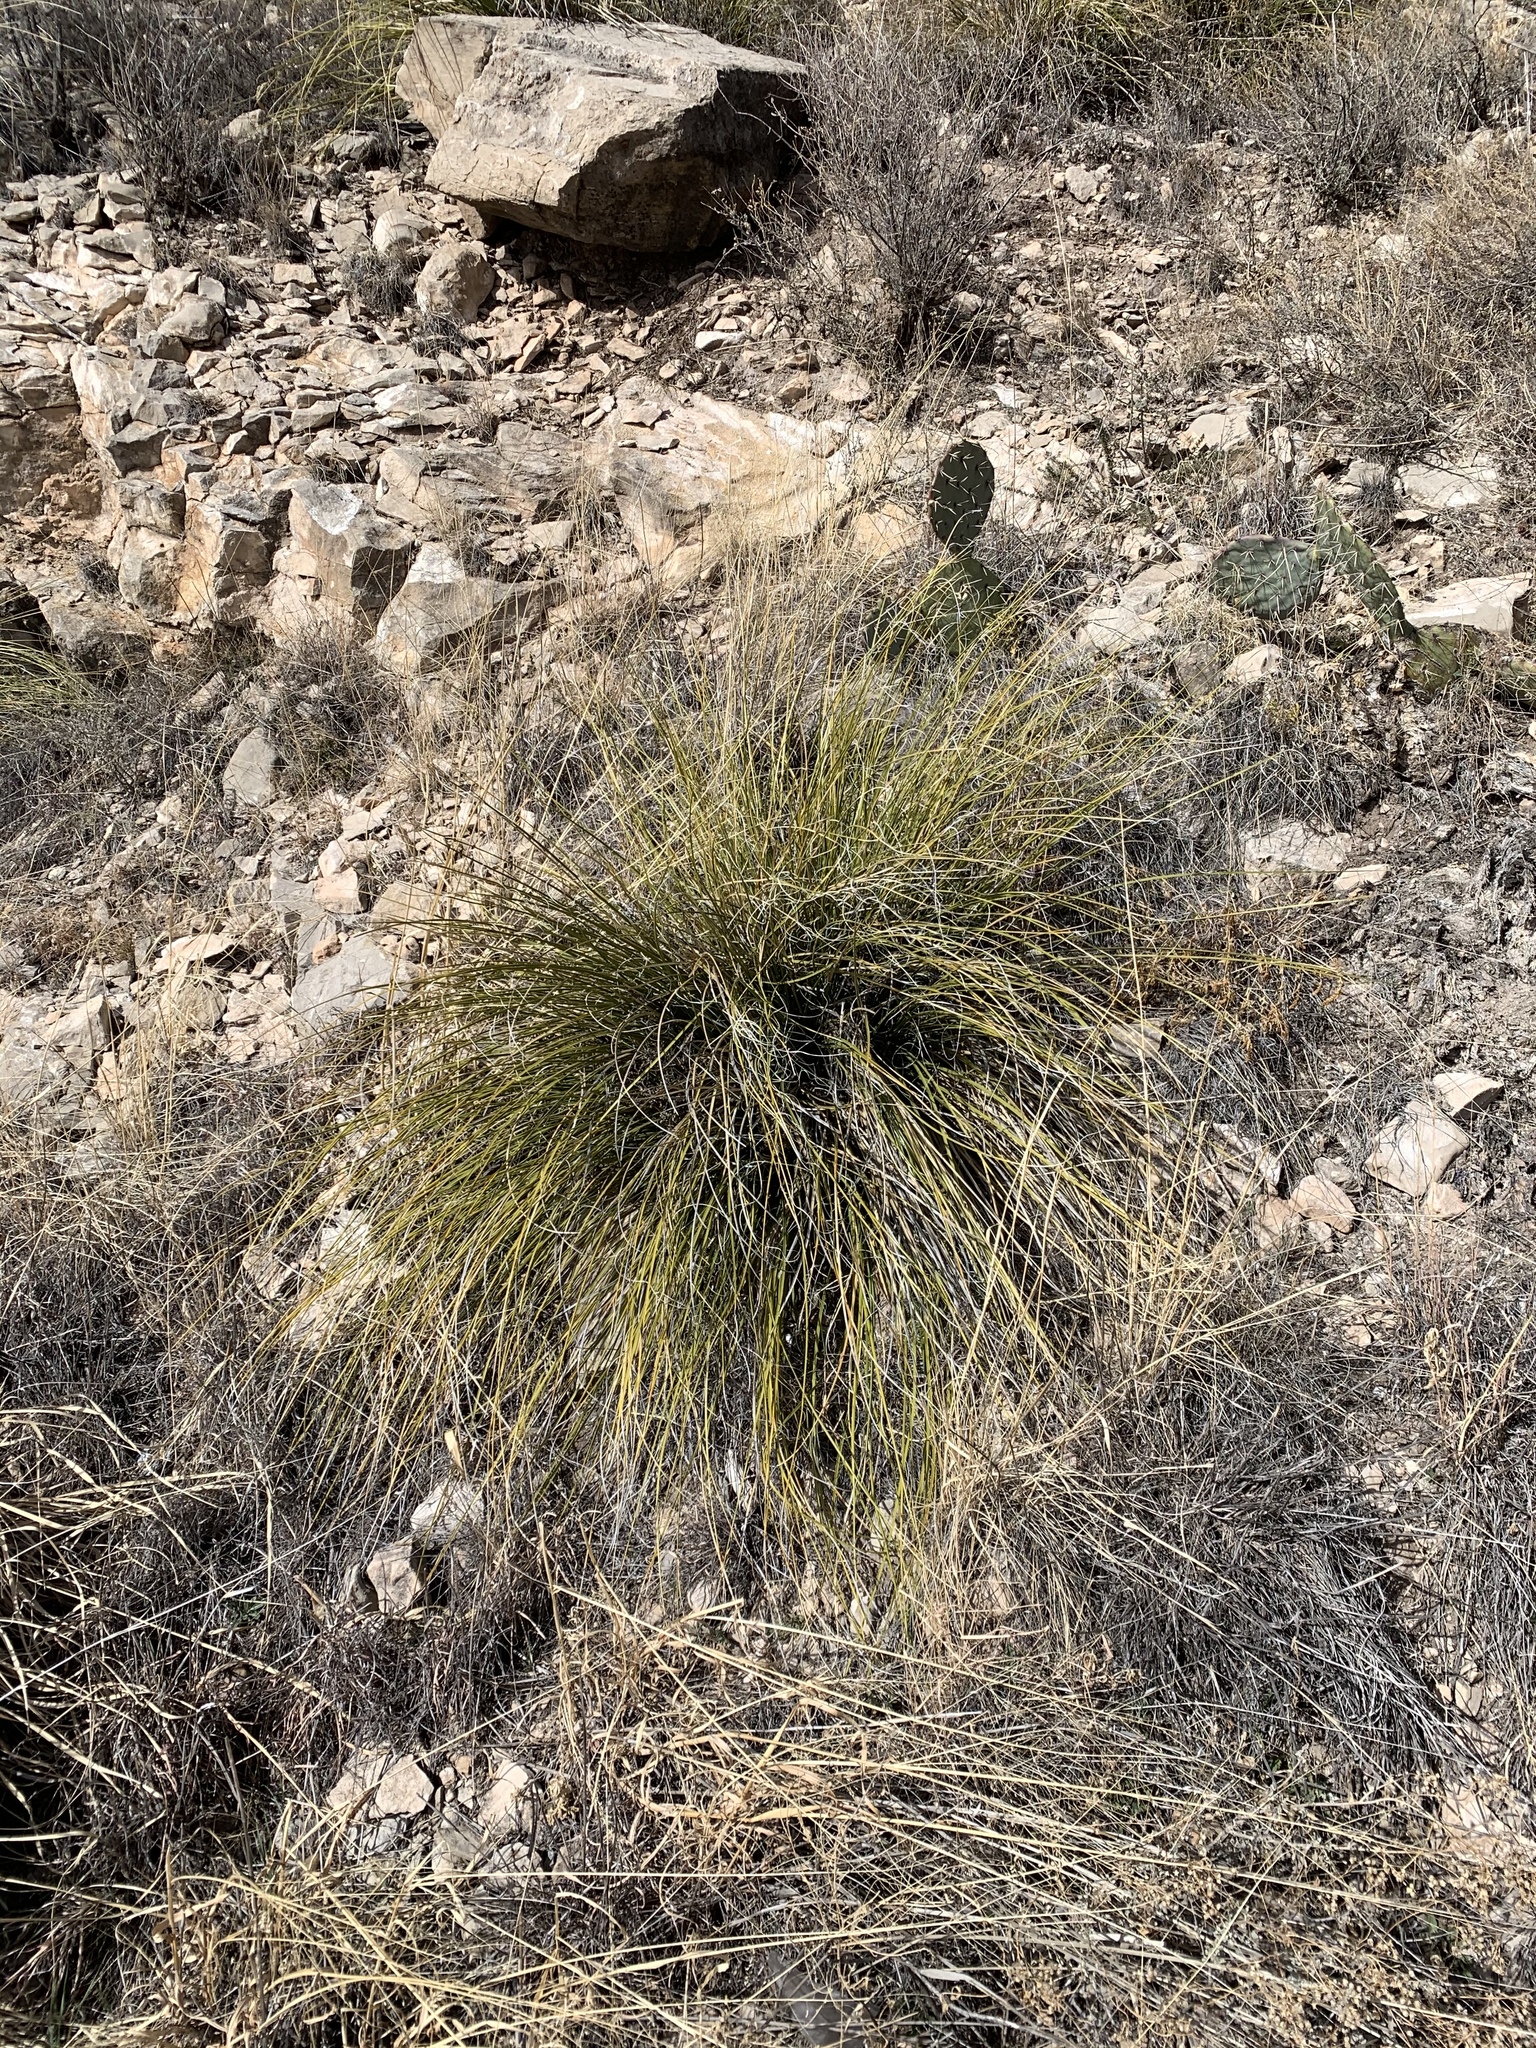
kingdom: Plantae
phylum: Tracheophyta
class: Liliopsida
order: Asparagales
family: Asparagaceae
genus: Nolina
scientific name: Nolina texana
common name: Texas sacahuiste
